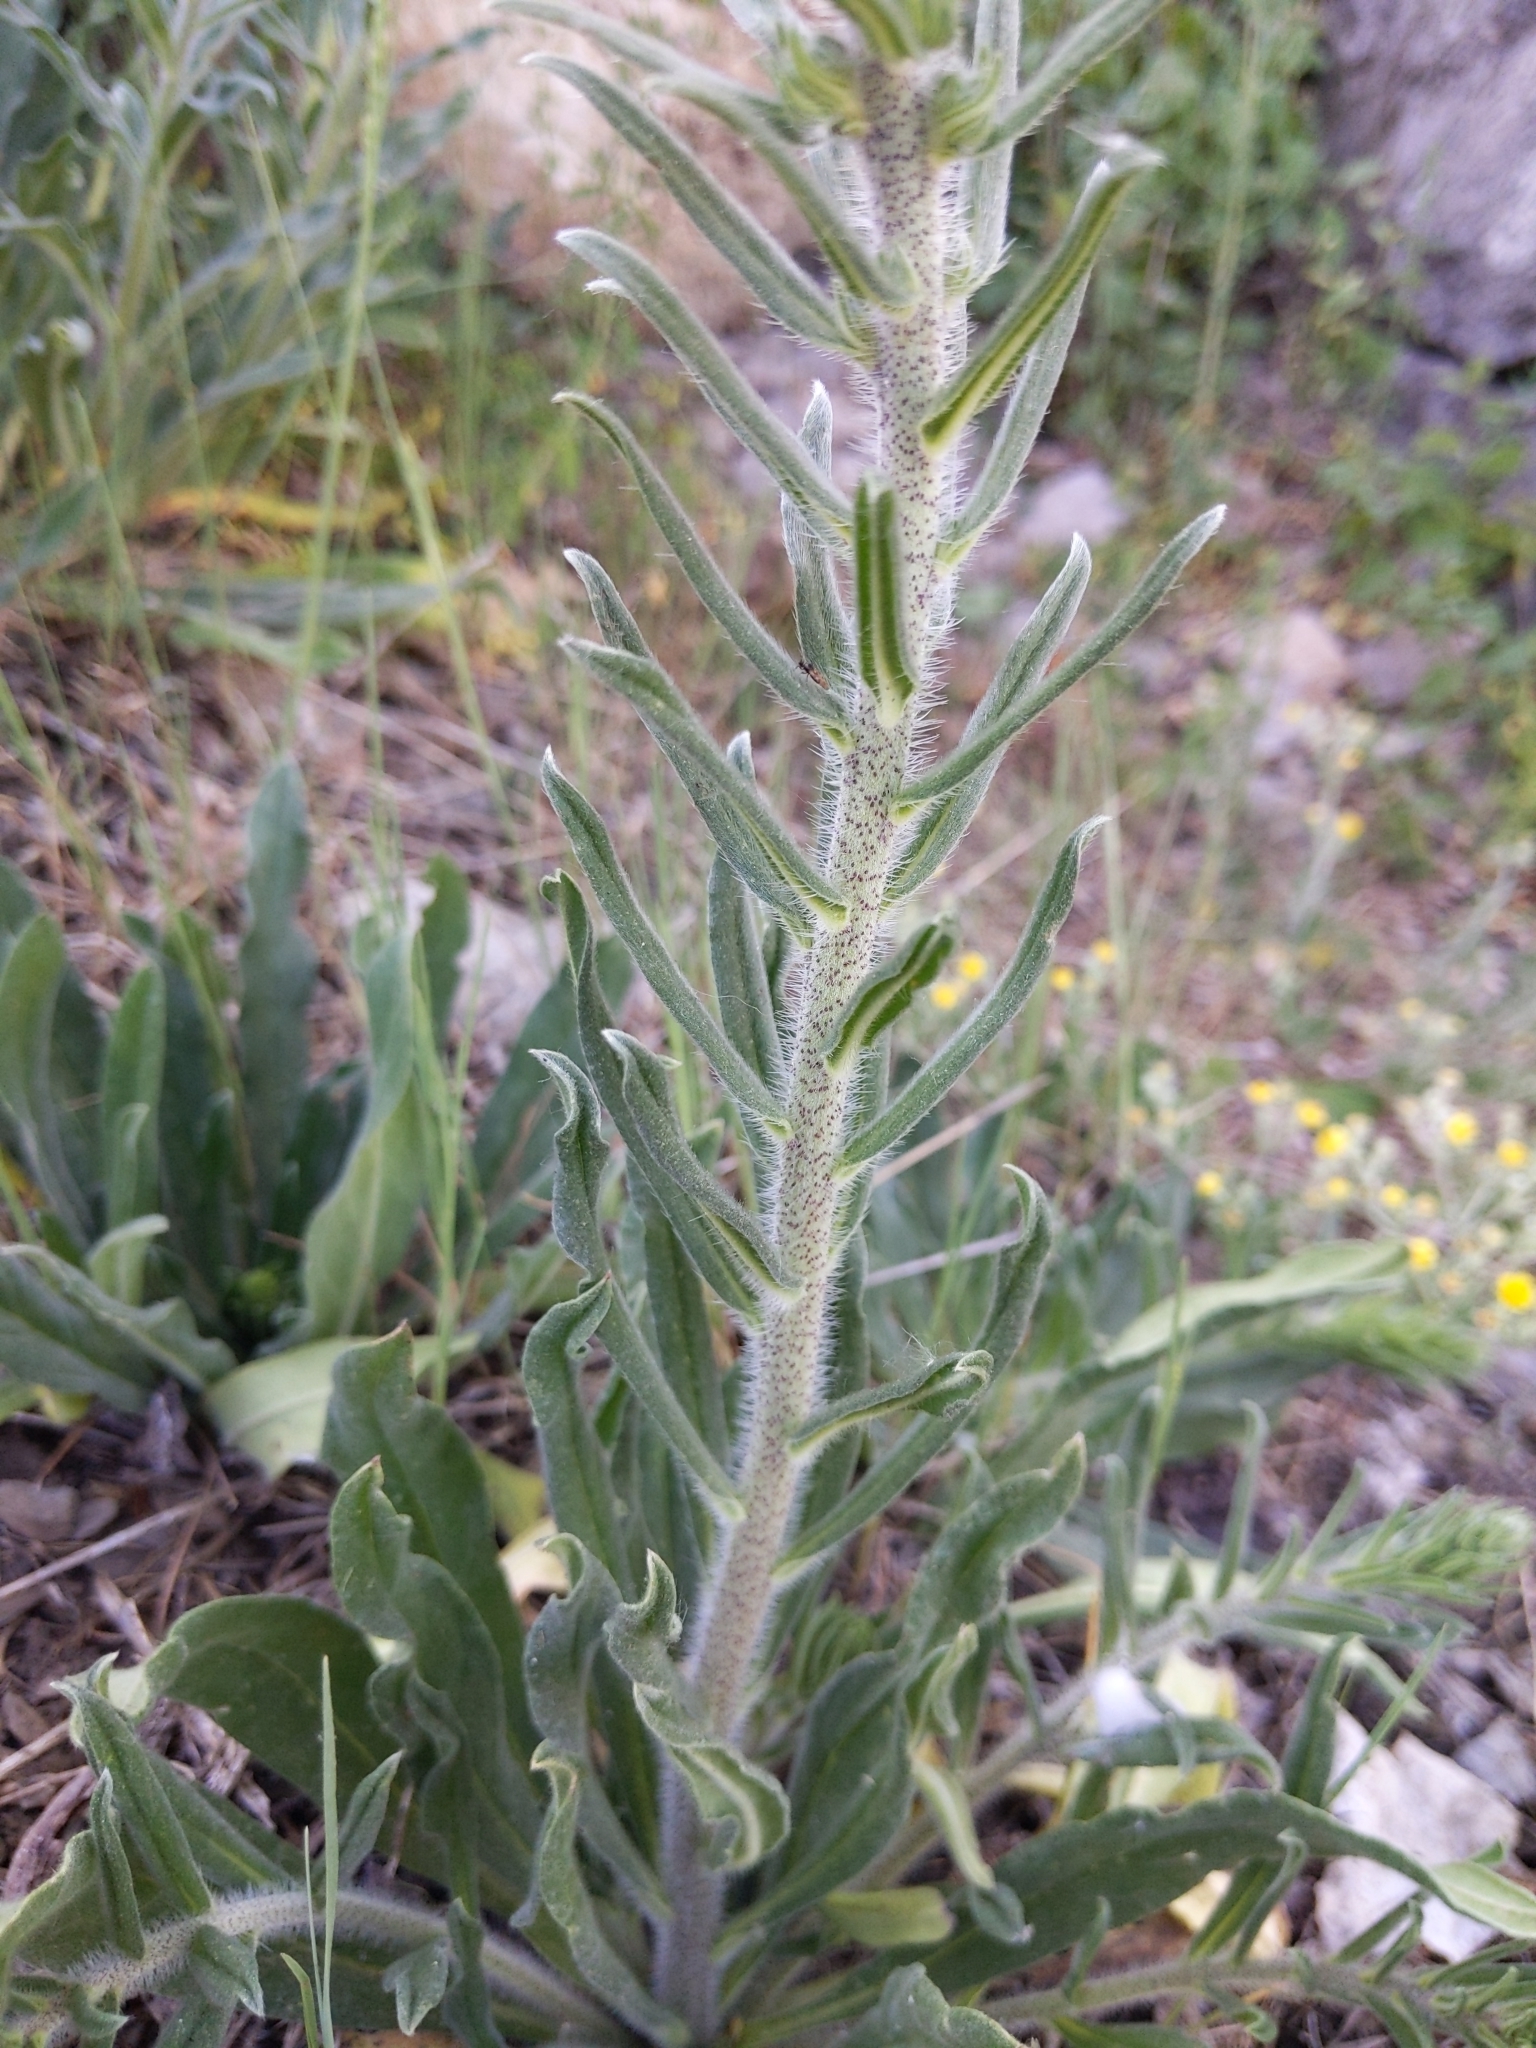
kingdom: Plantae
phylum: Tracheophyta
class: Magnoliopsida
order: Boraginales
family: Boraginaceae
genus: Echium
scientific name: Echium vulgare
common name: Common viper's bugloss
